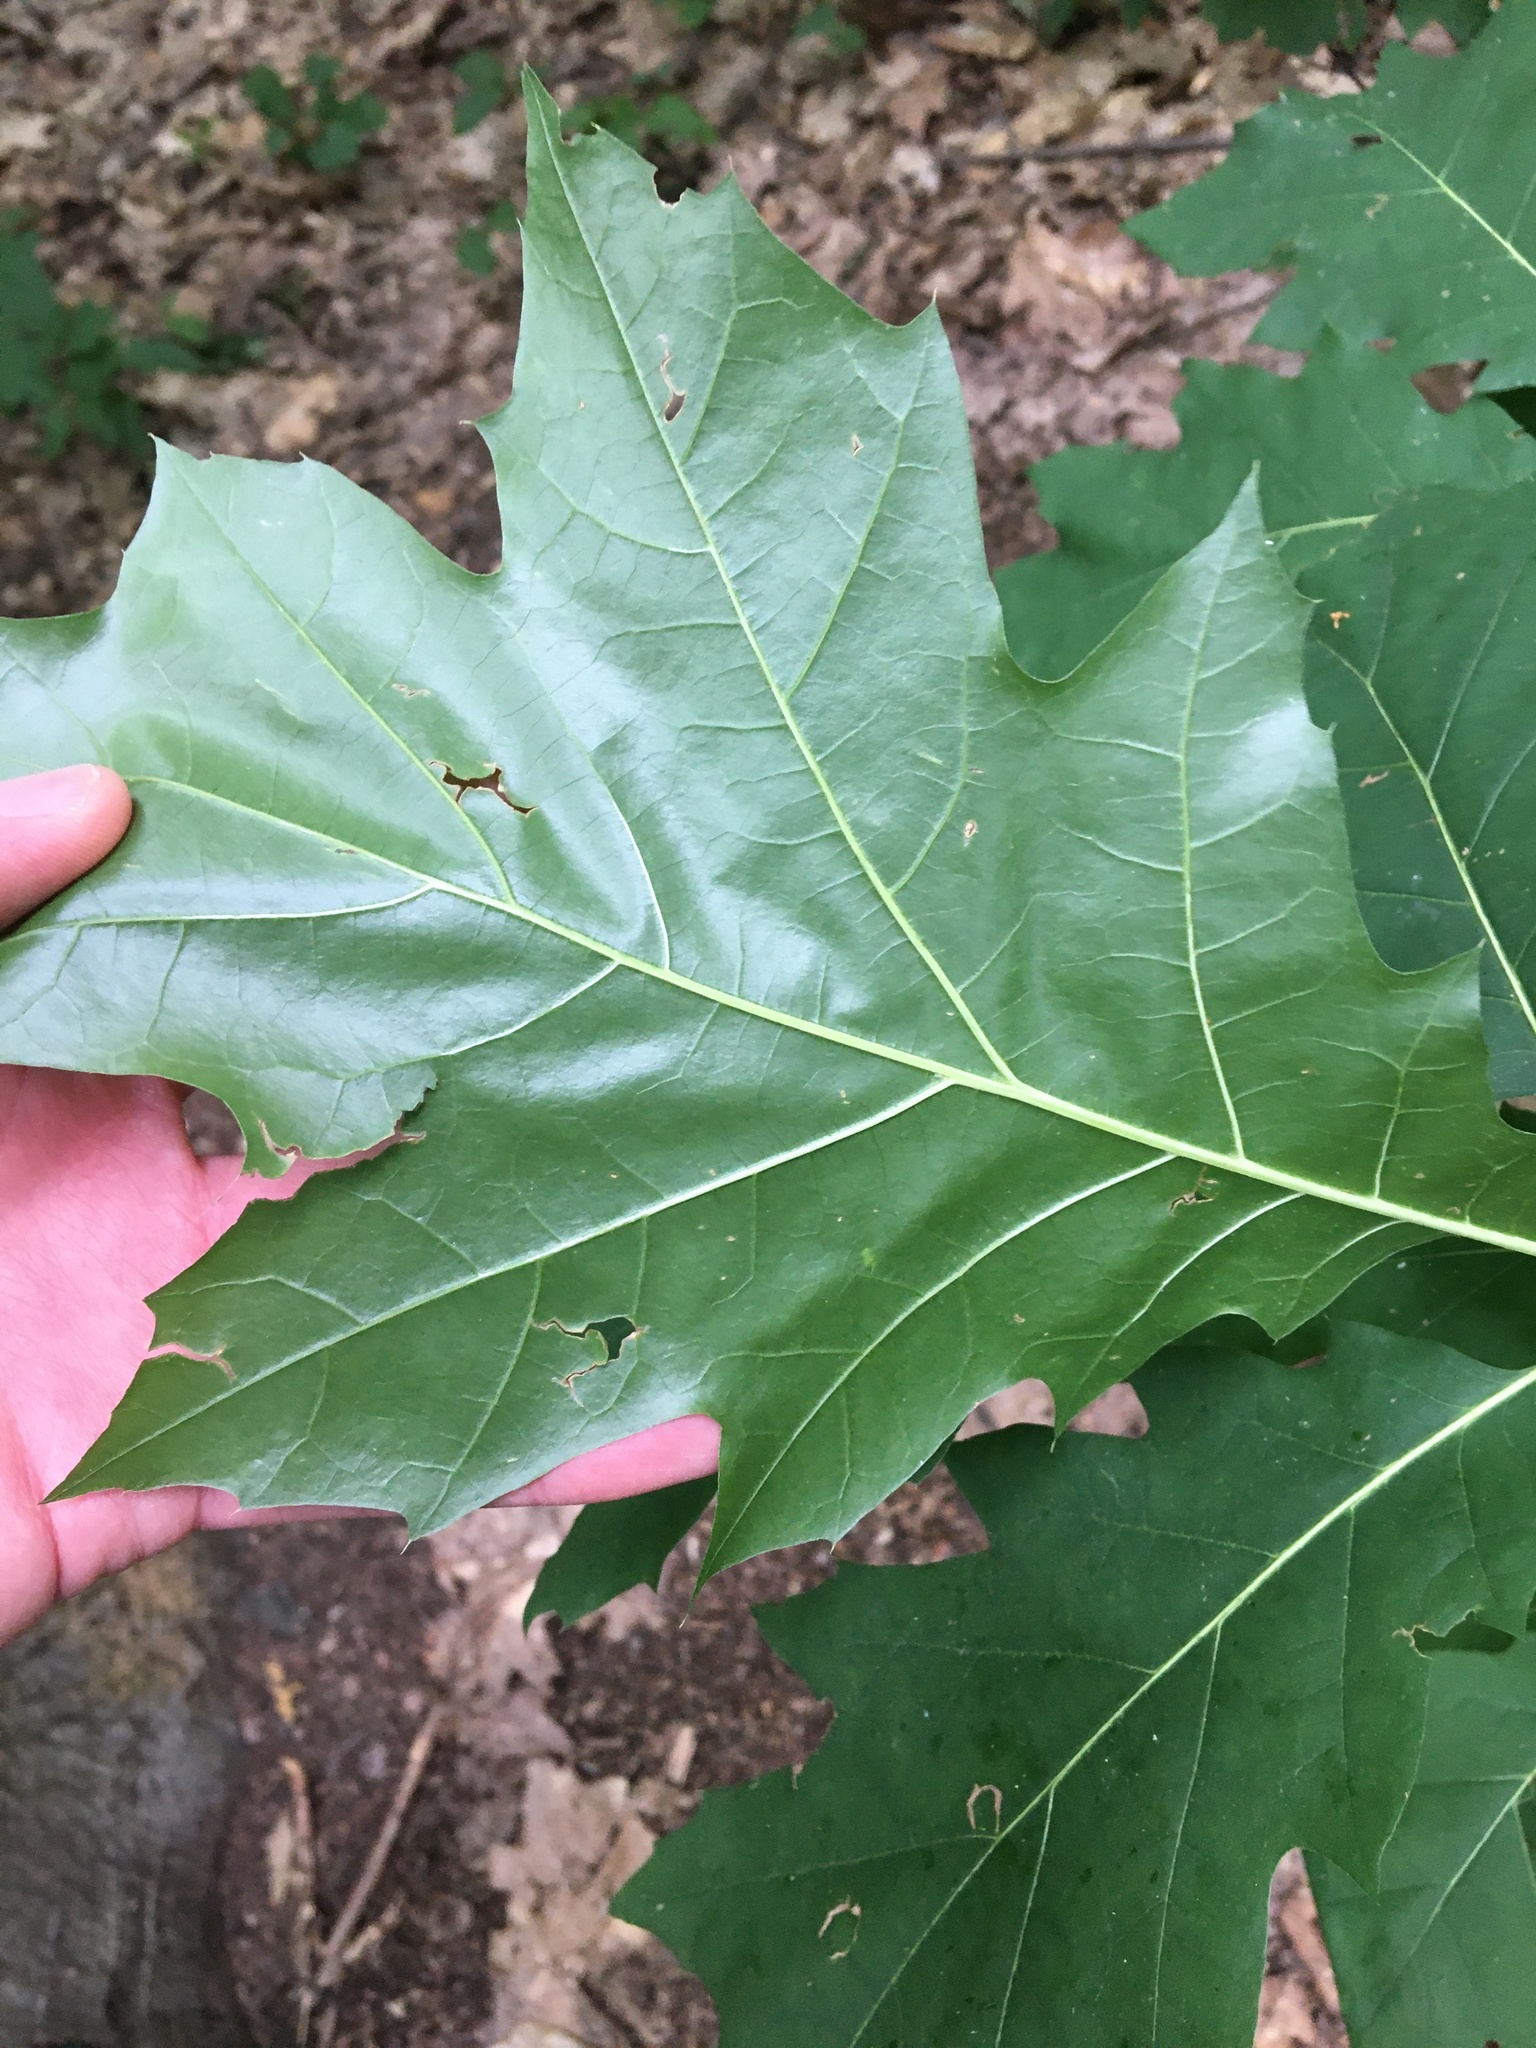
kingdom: Plantae
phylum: Tracheophyta
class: Magnoliopsida
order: Fagales
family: Fagaceae
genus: Quercus
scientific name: Quercus rubra
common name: Red oak
